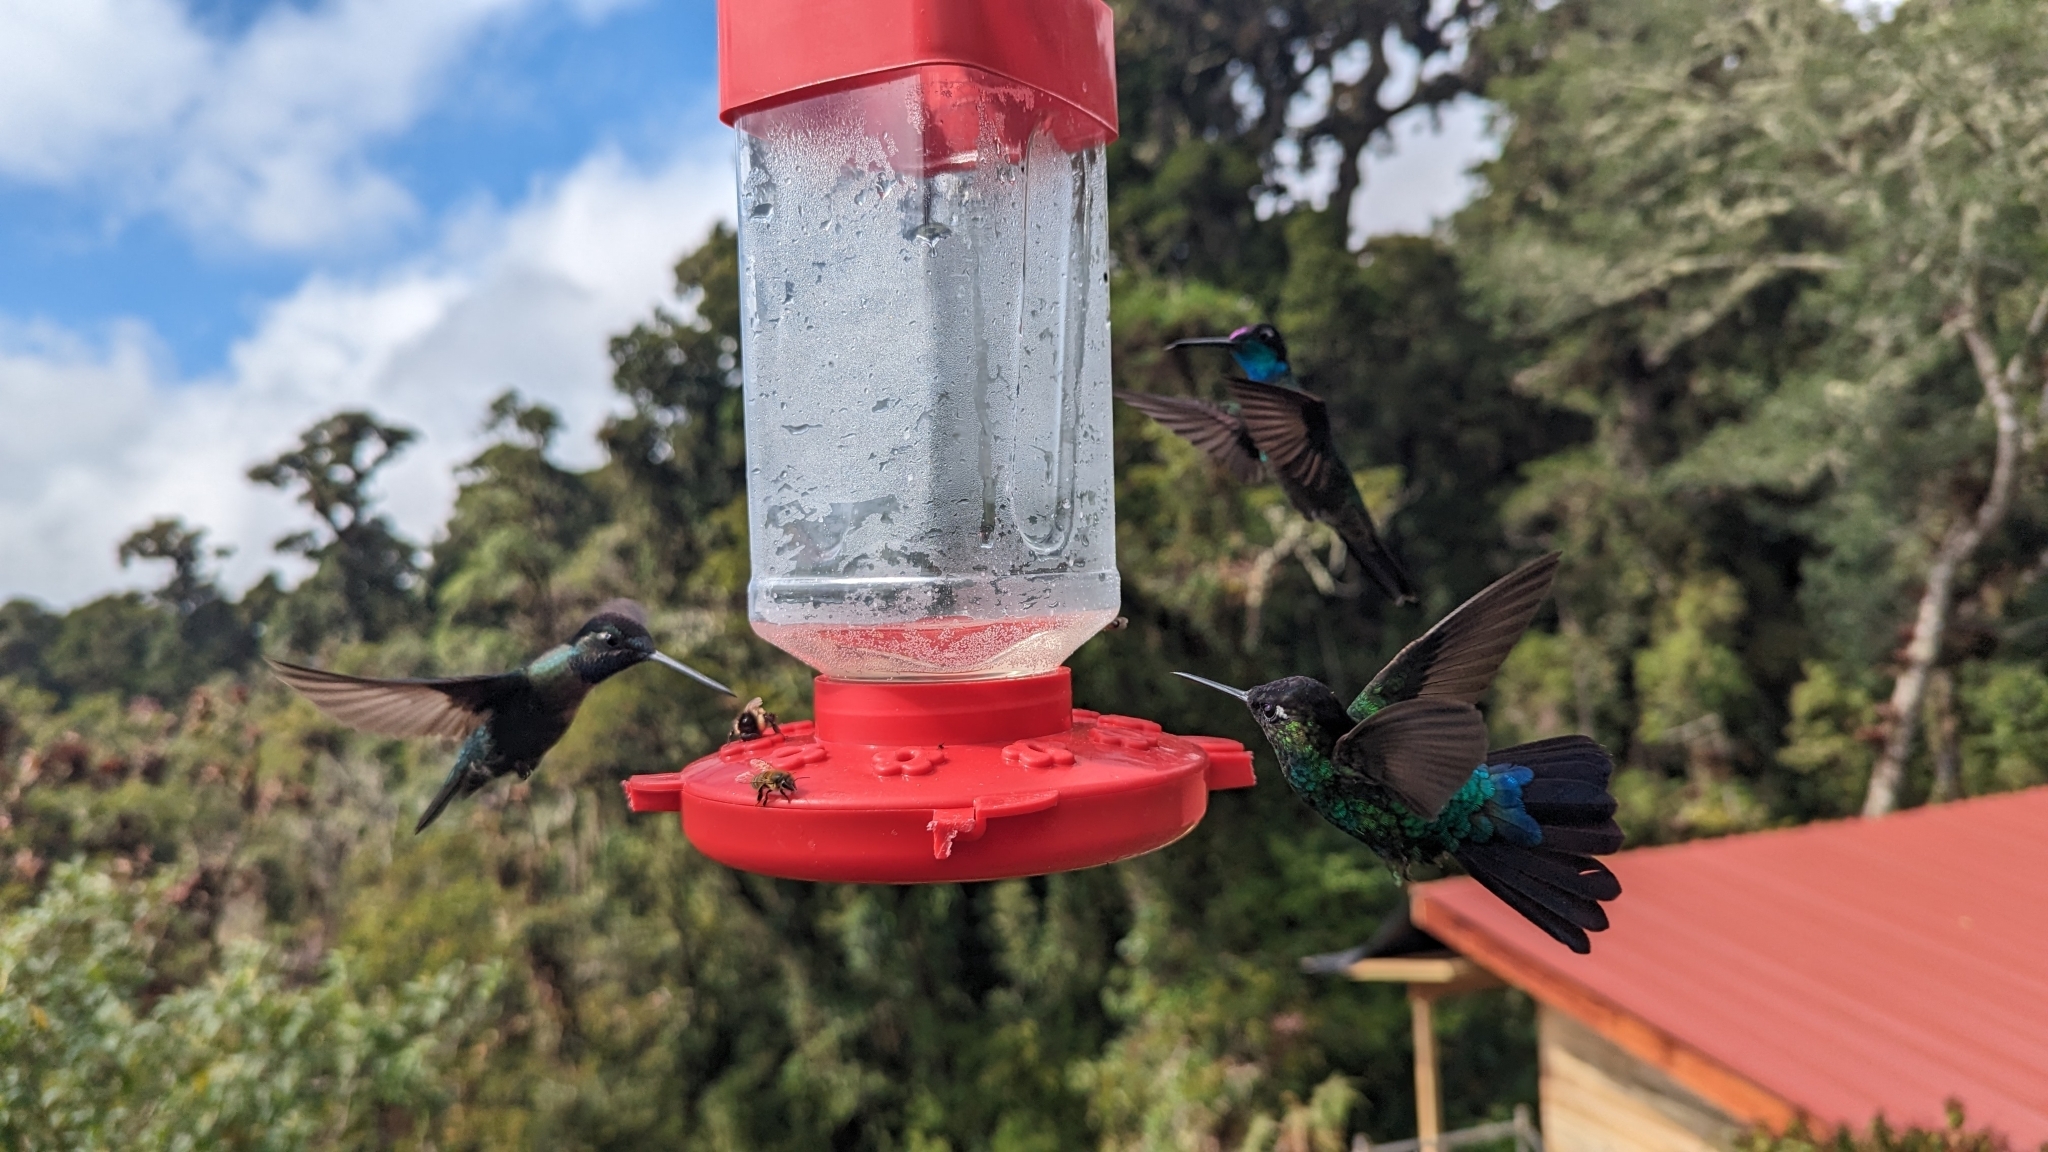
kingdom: Animalia
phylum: Chordata
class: Aves
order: Apodiformes
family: Trochilidae
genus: Eugenes
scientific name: Eugenes spectabilis
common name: Talamanca hummingbird
